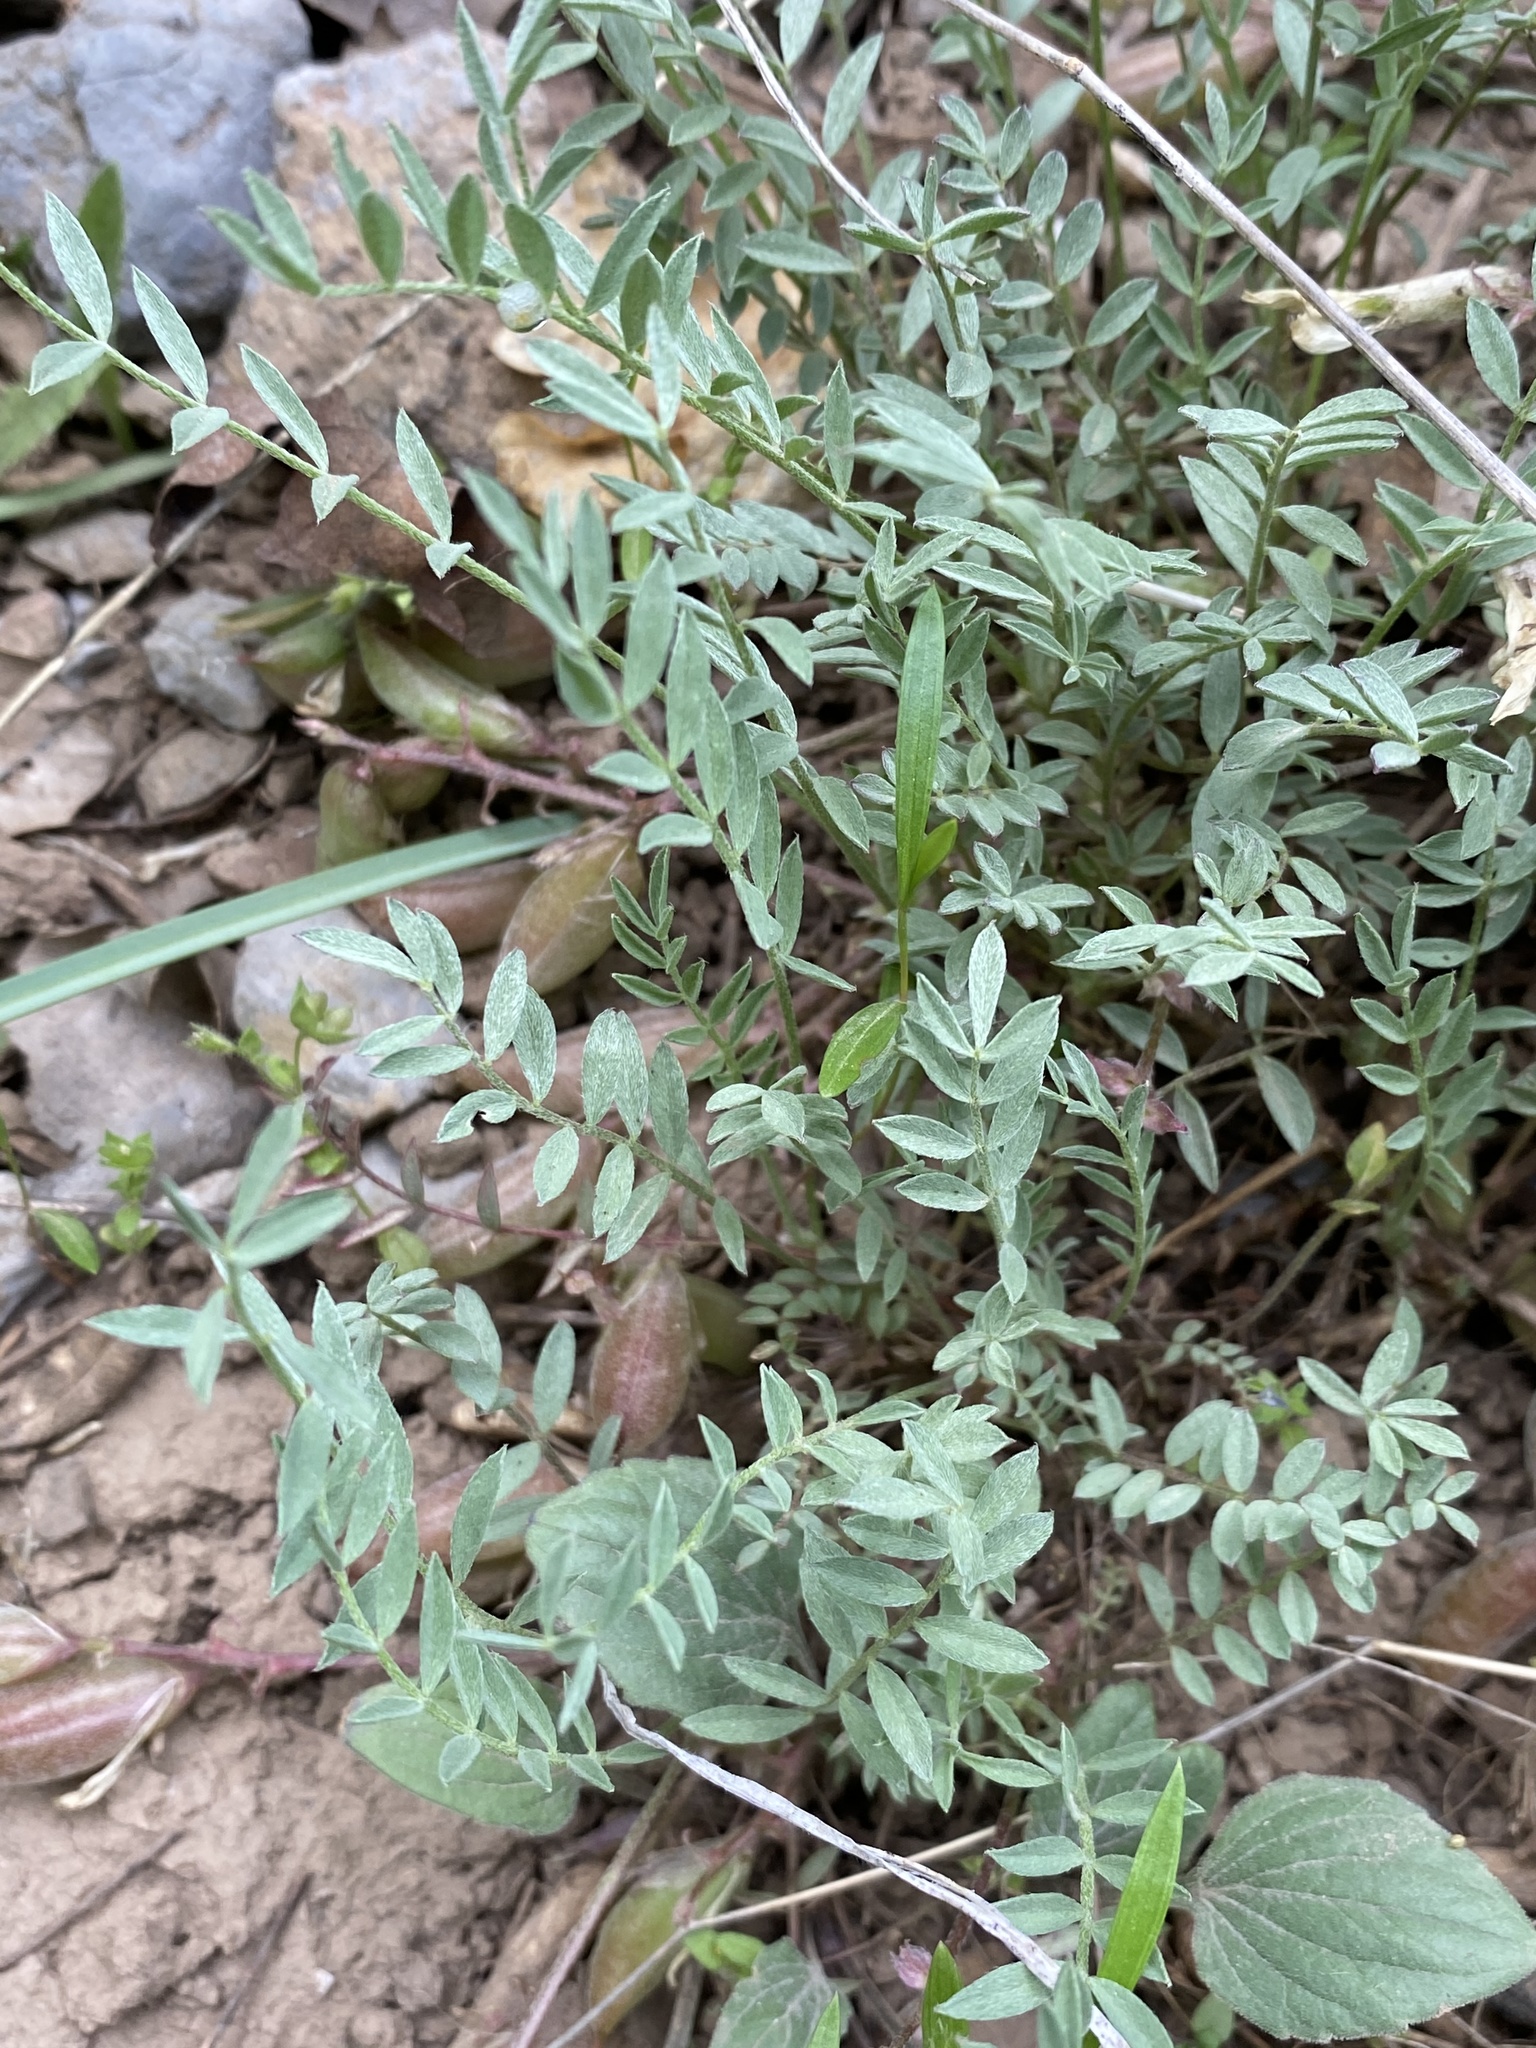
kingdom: Plantae
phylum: Tracheophyta
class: Magnoliopsida
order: Fabales
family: Fabaceae
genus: Astragalus
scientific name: Astragalus argophyllus
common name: Silverleaf milk-vetch
